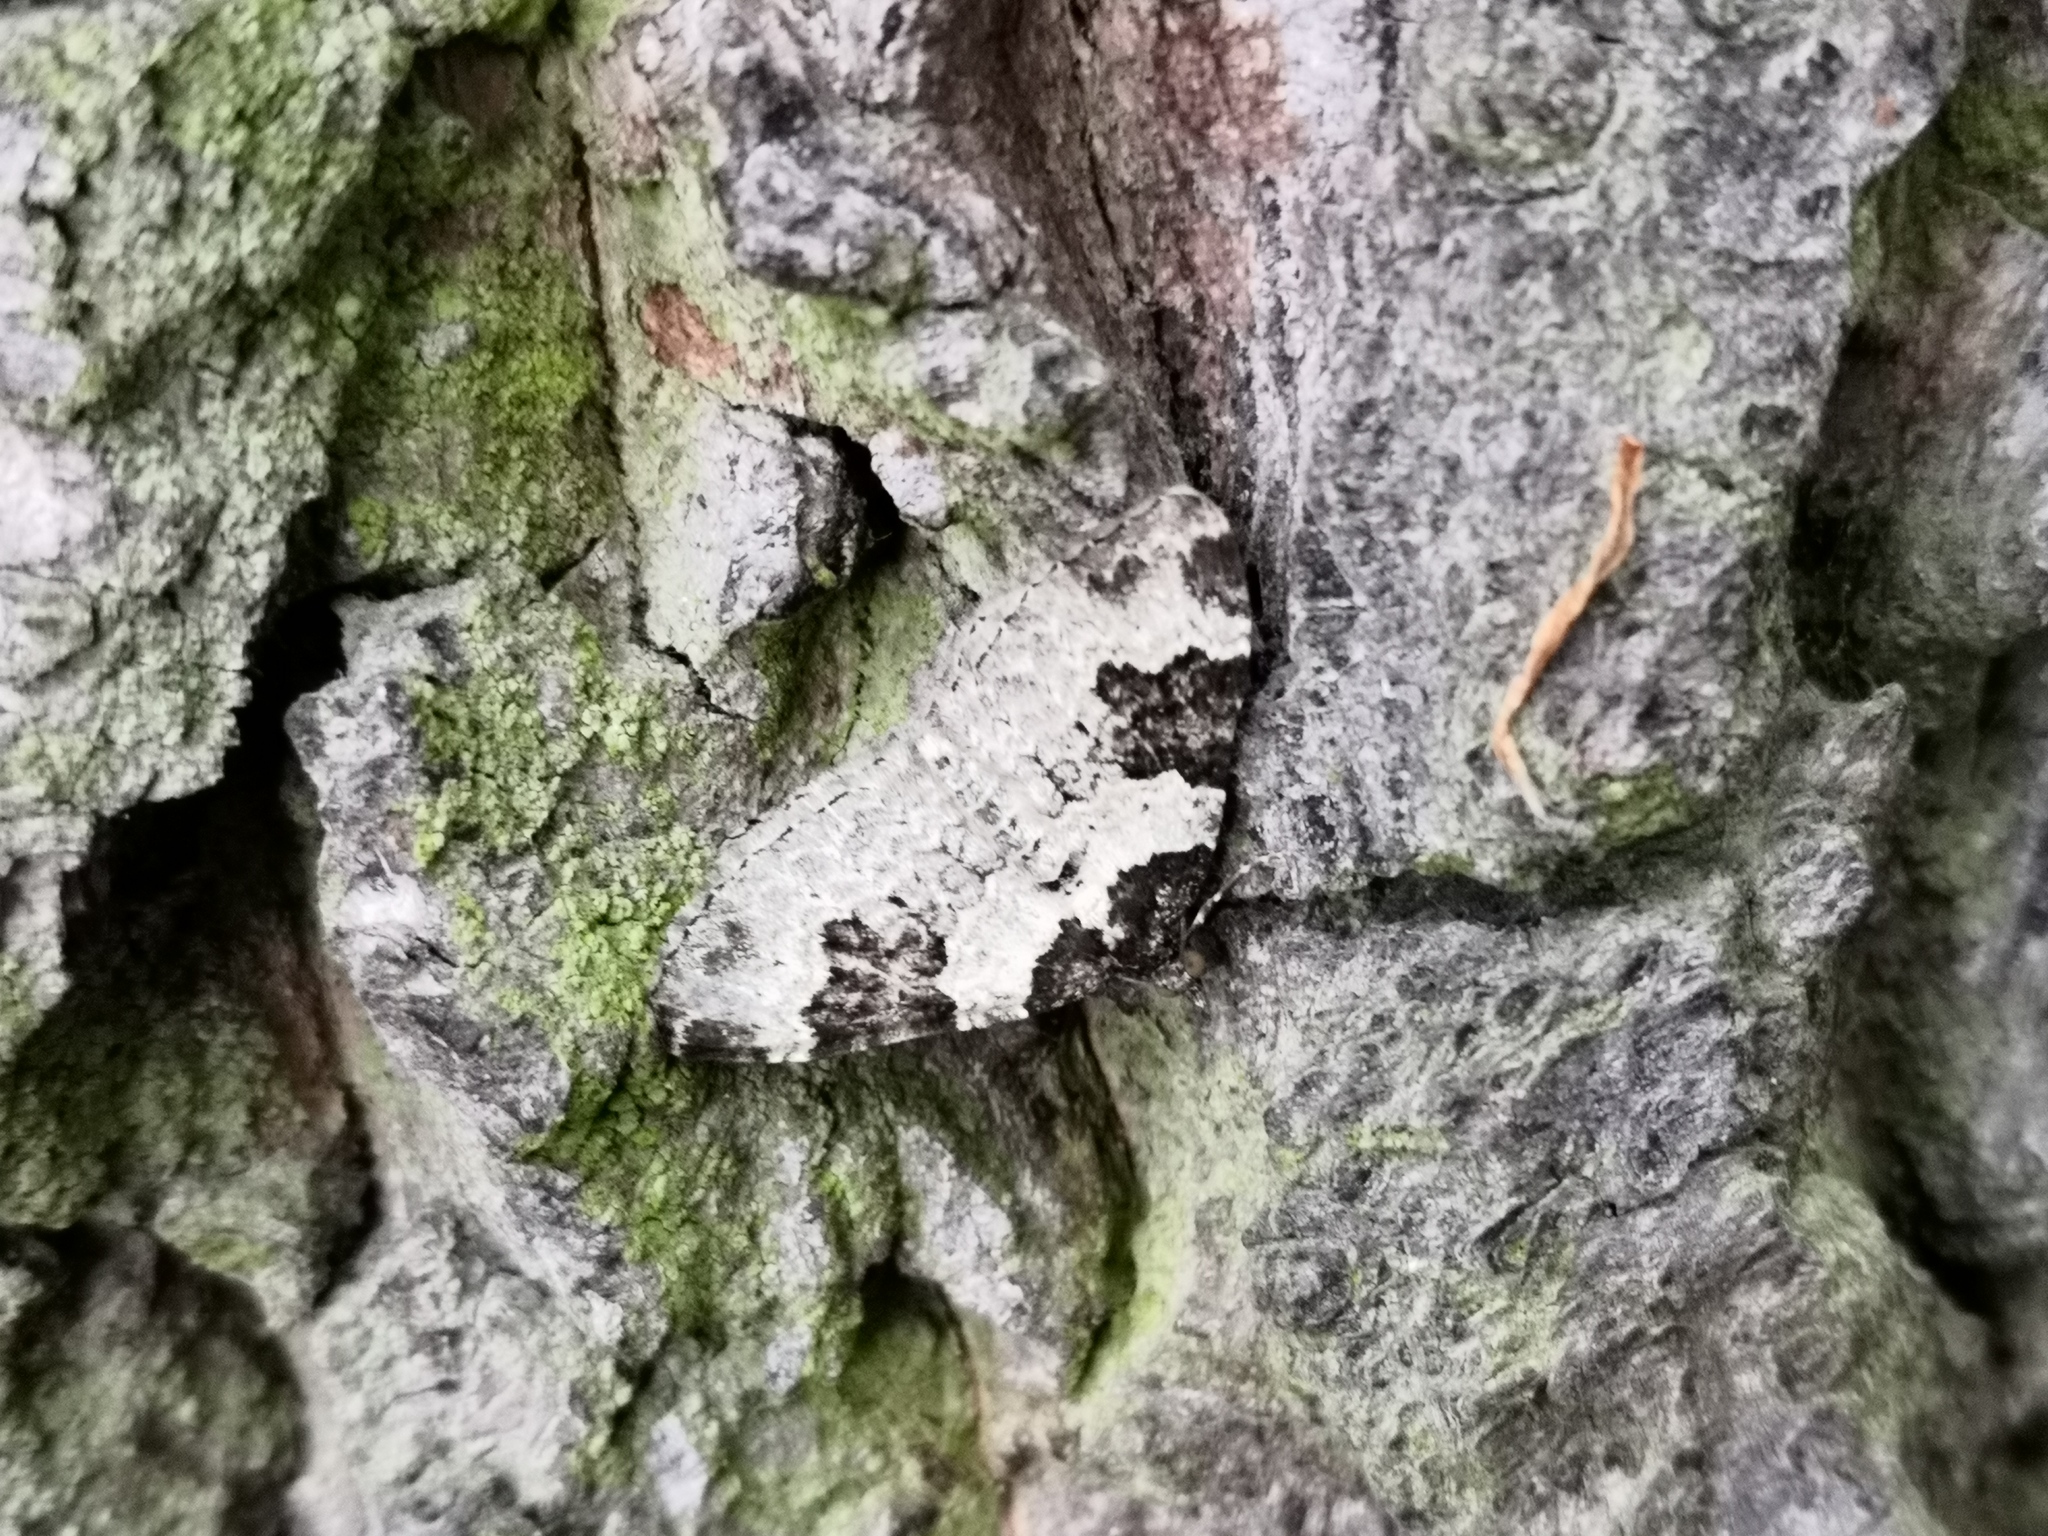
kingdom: Animalia
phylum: Arthropoda
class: Insecta
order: Lepidoptera
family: Geometridae
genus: Xanthorhoe
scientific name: Xanthorhoe fluctuata
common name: Garden carpet
